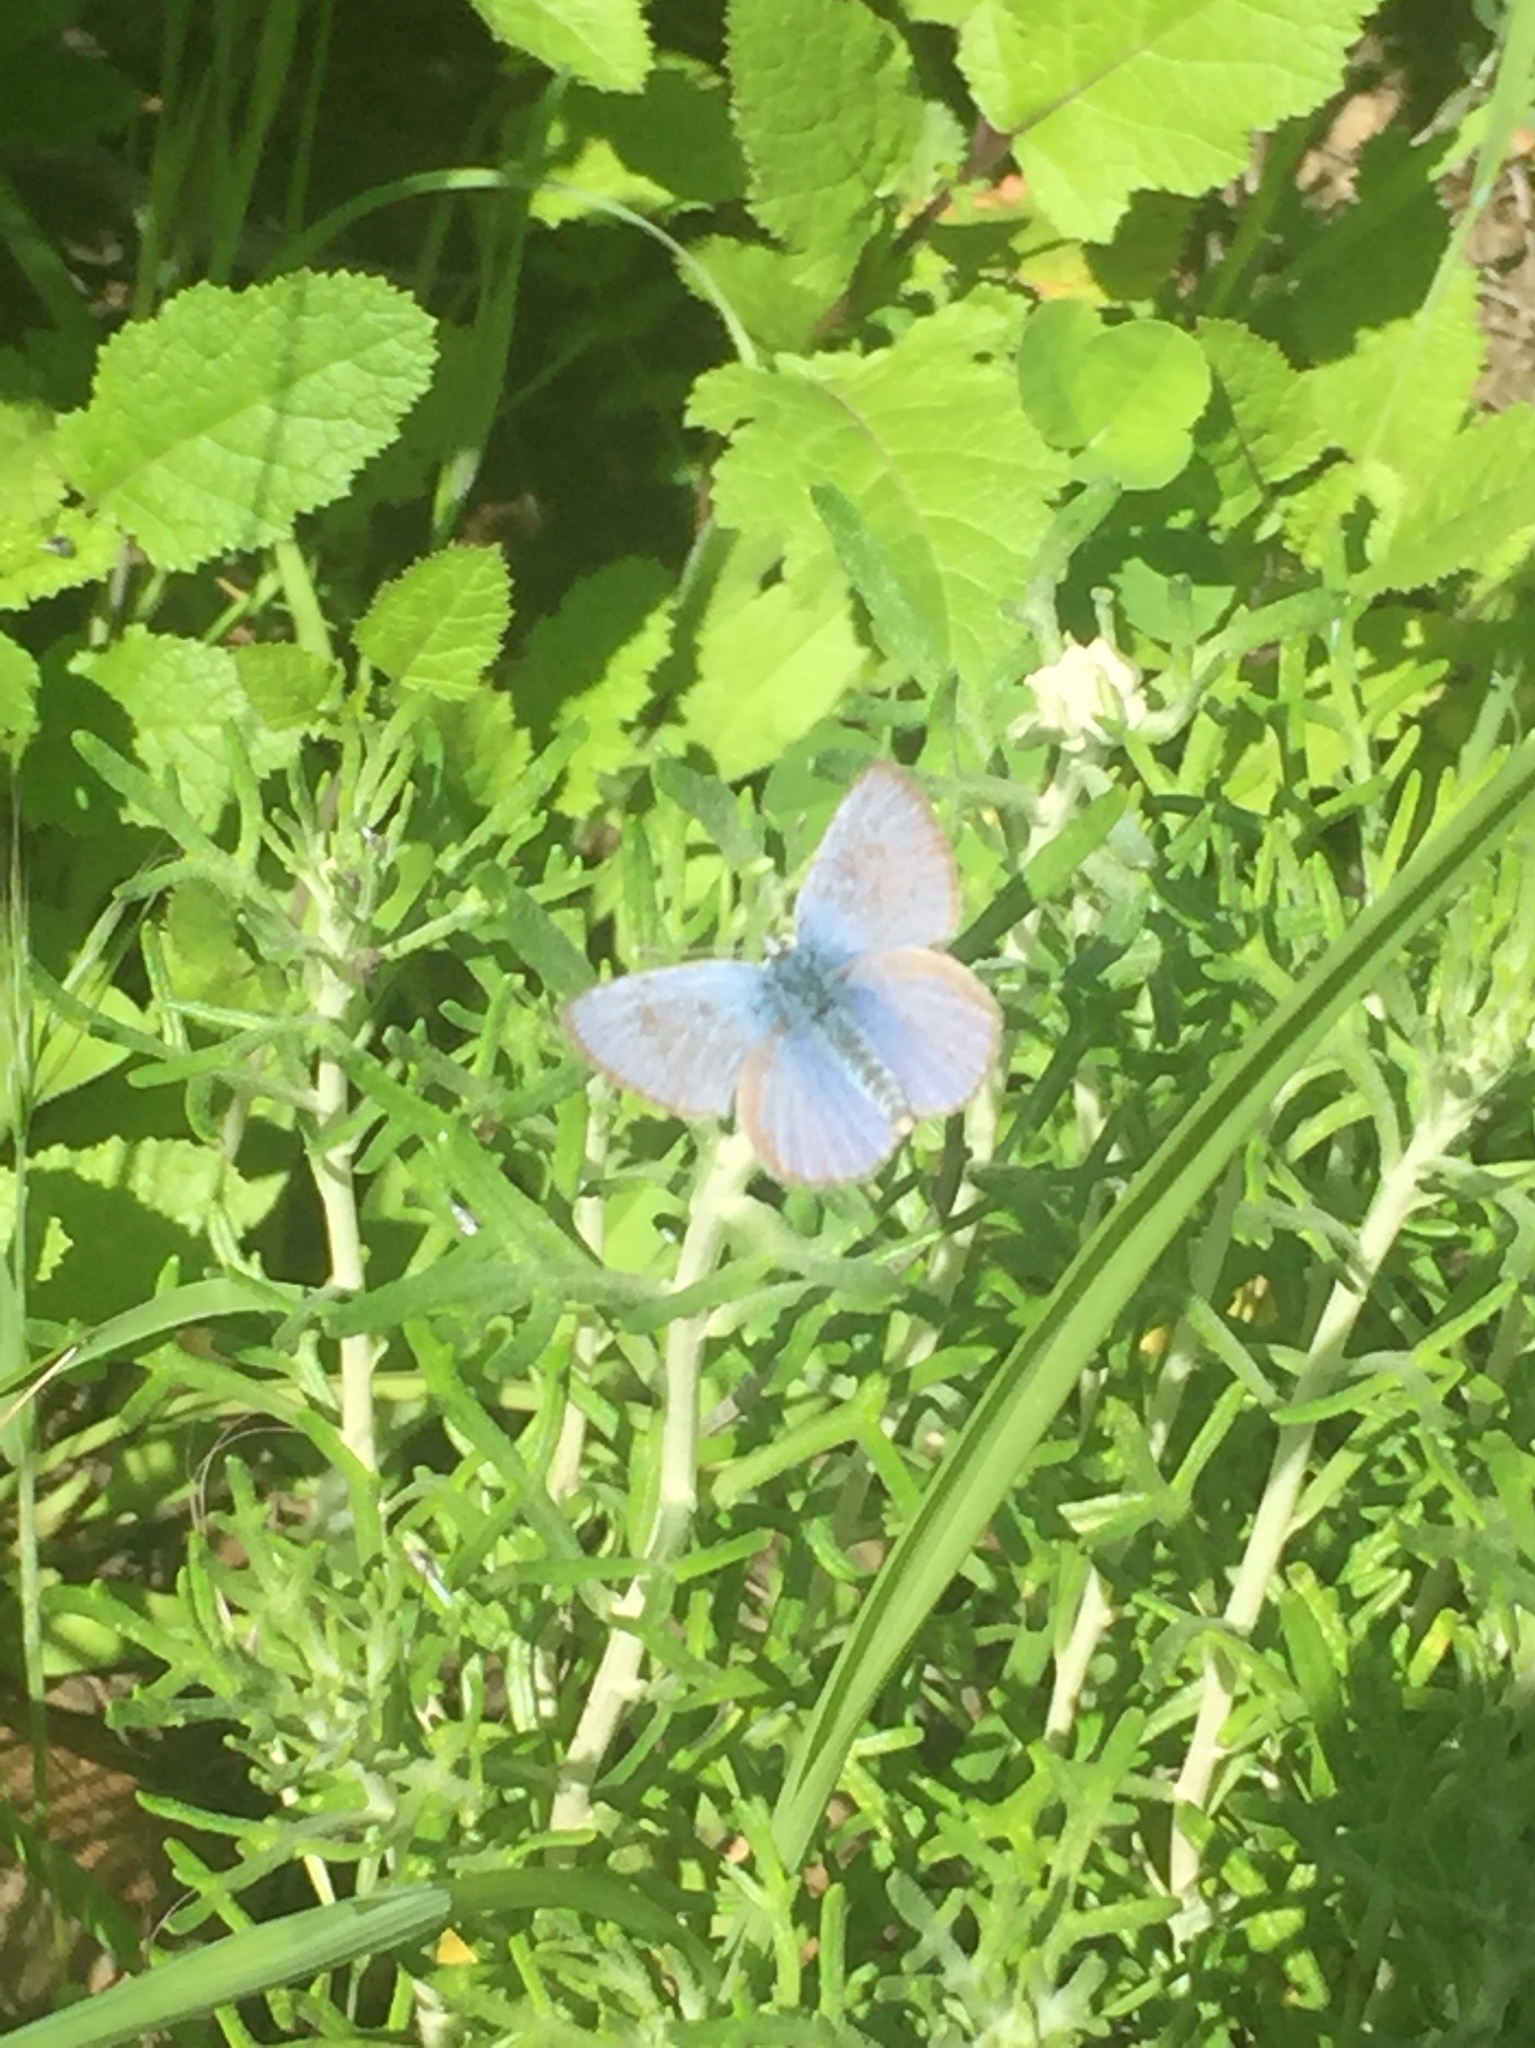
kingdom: Animalia
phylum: Arthropoda
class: Insecta
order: Lepidoptera
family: Lycaenidae
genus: Glaucopsyche
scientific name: Glaucopsyche lygdamus
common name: Silvery blue
